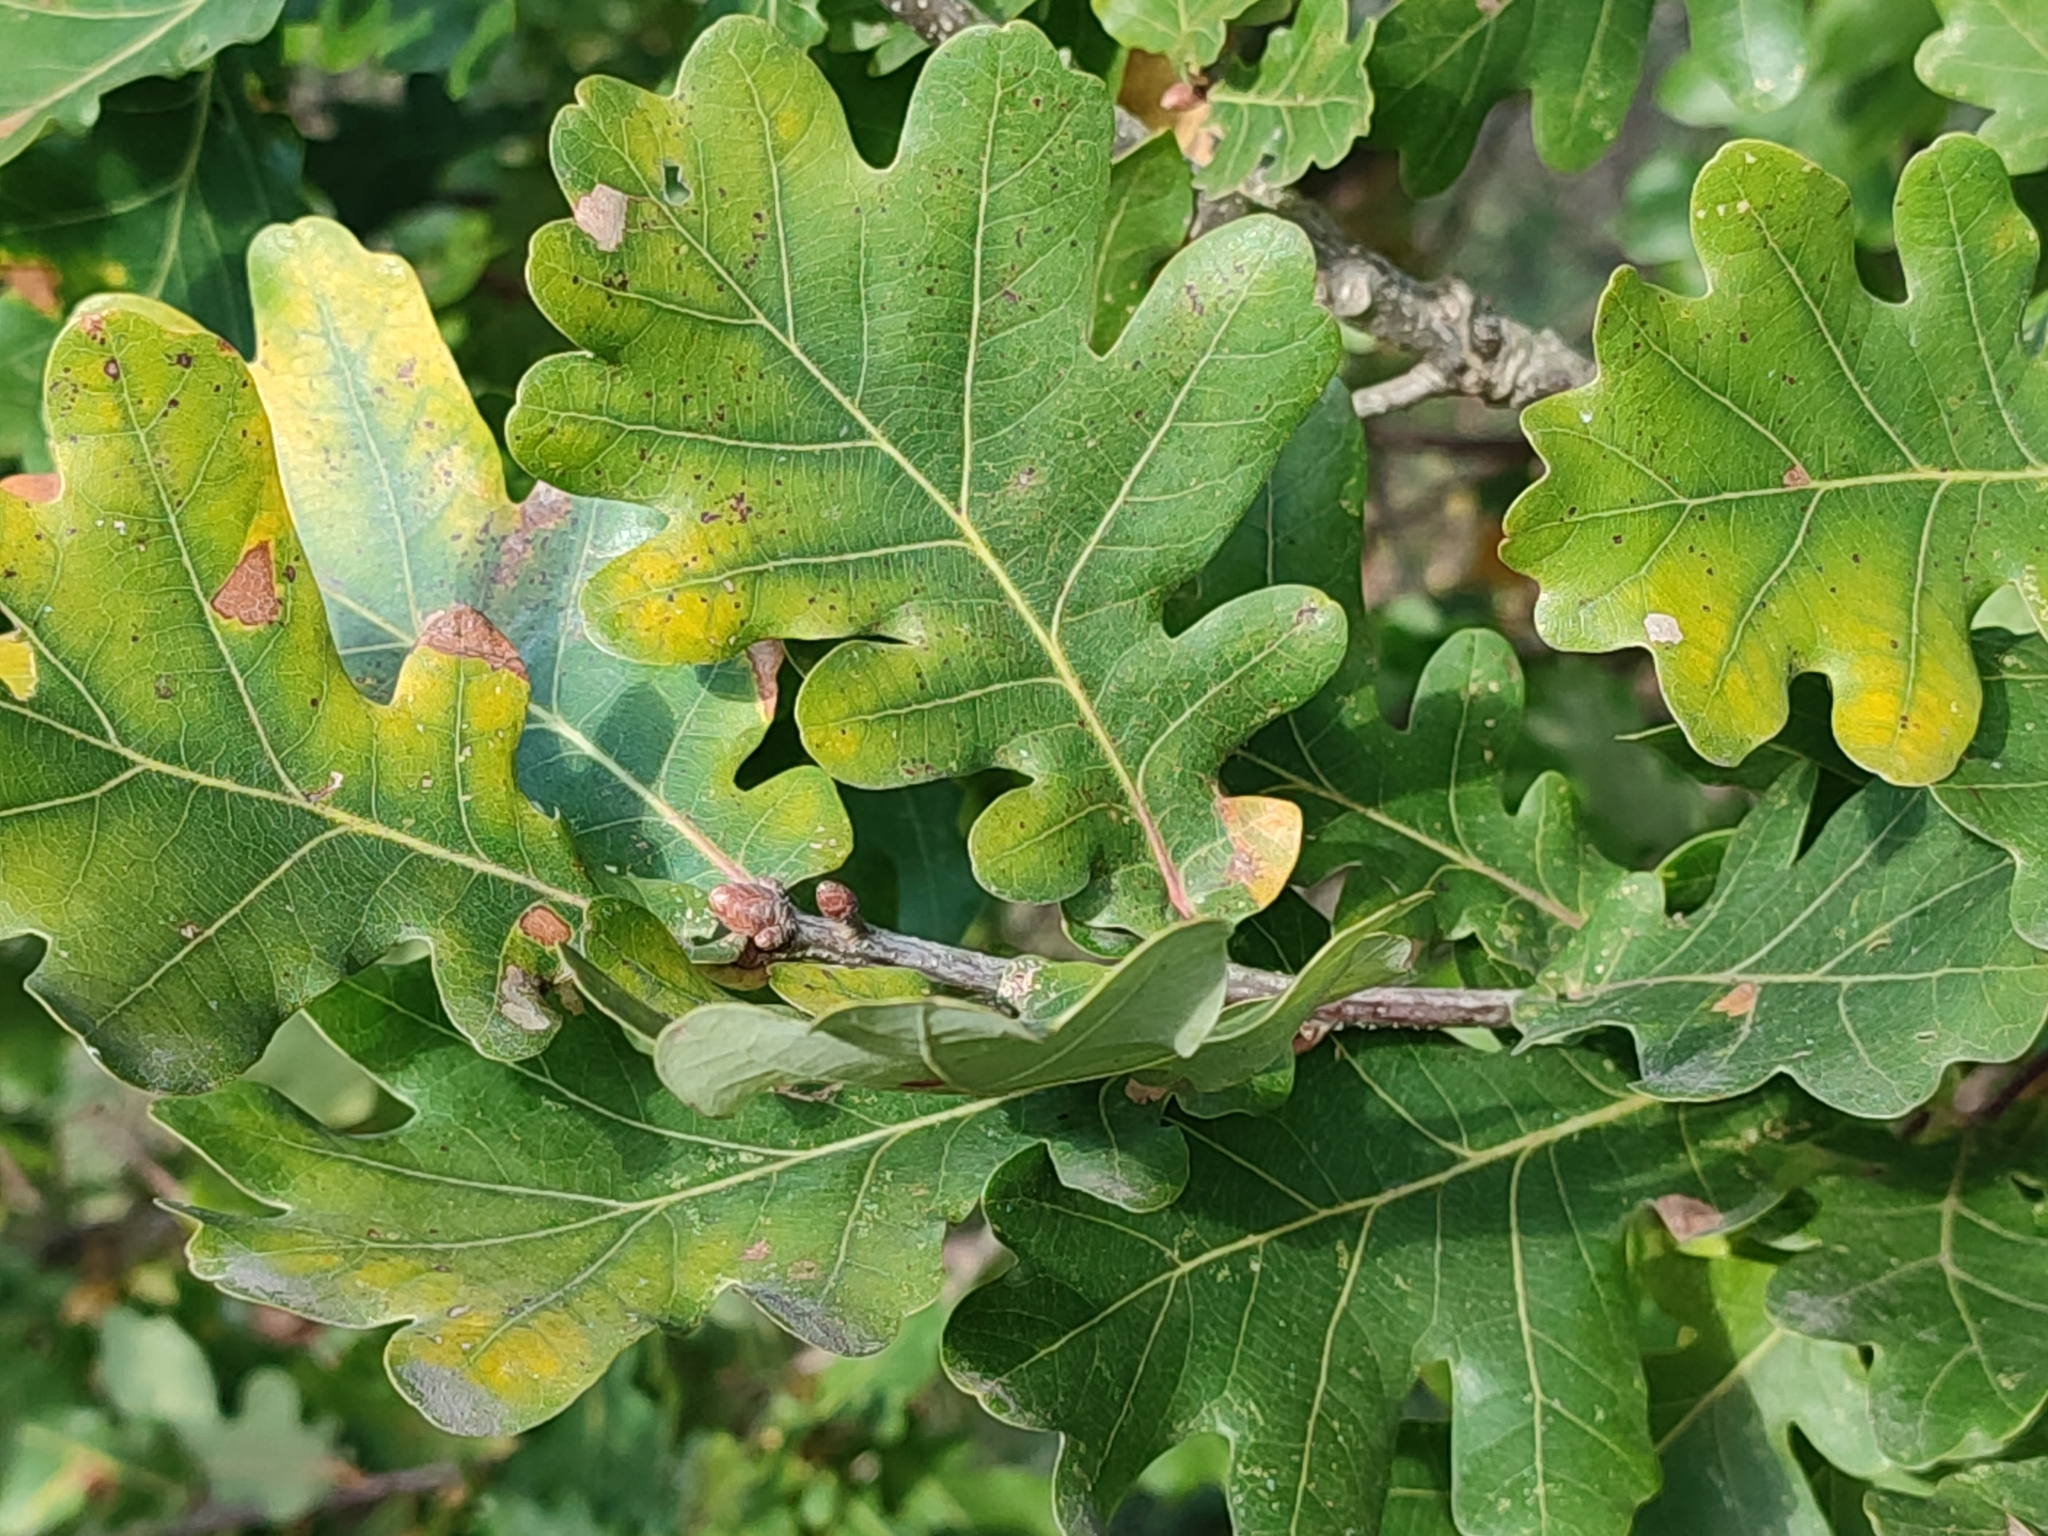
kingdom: Plantae
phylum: Tracheophyta
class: Magnoliopsida
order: Fagales
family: Fagaceae
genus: Quercus
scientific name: Quercus robur
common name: Pedunculate oak
